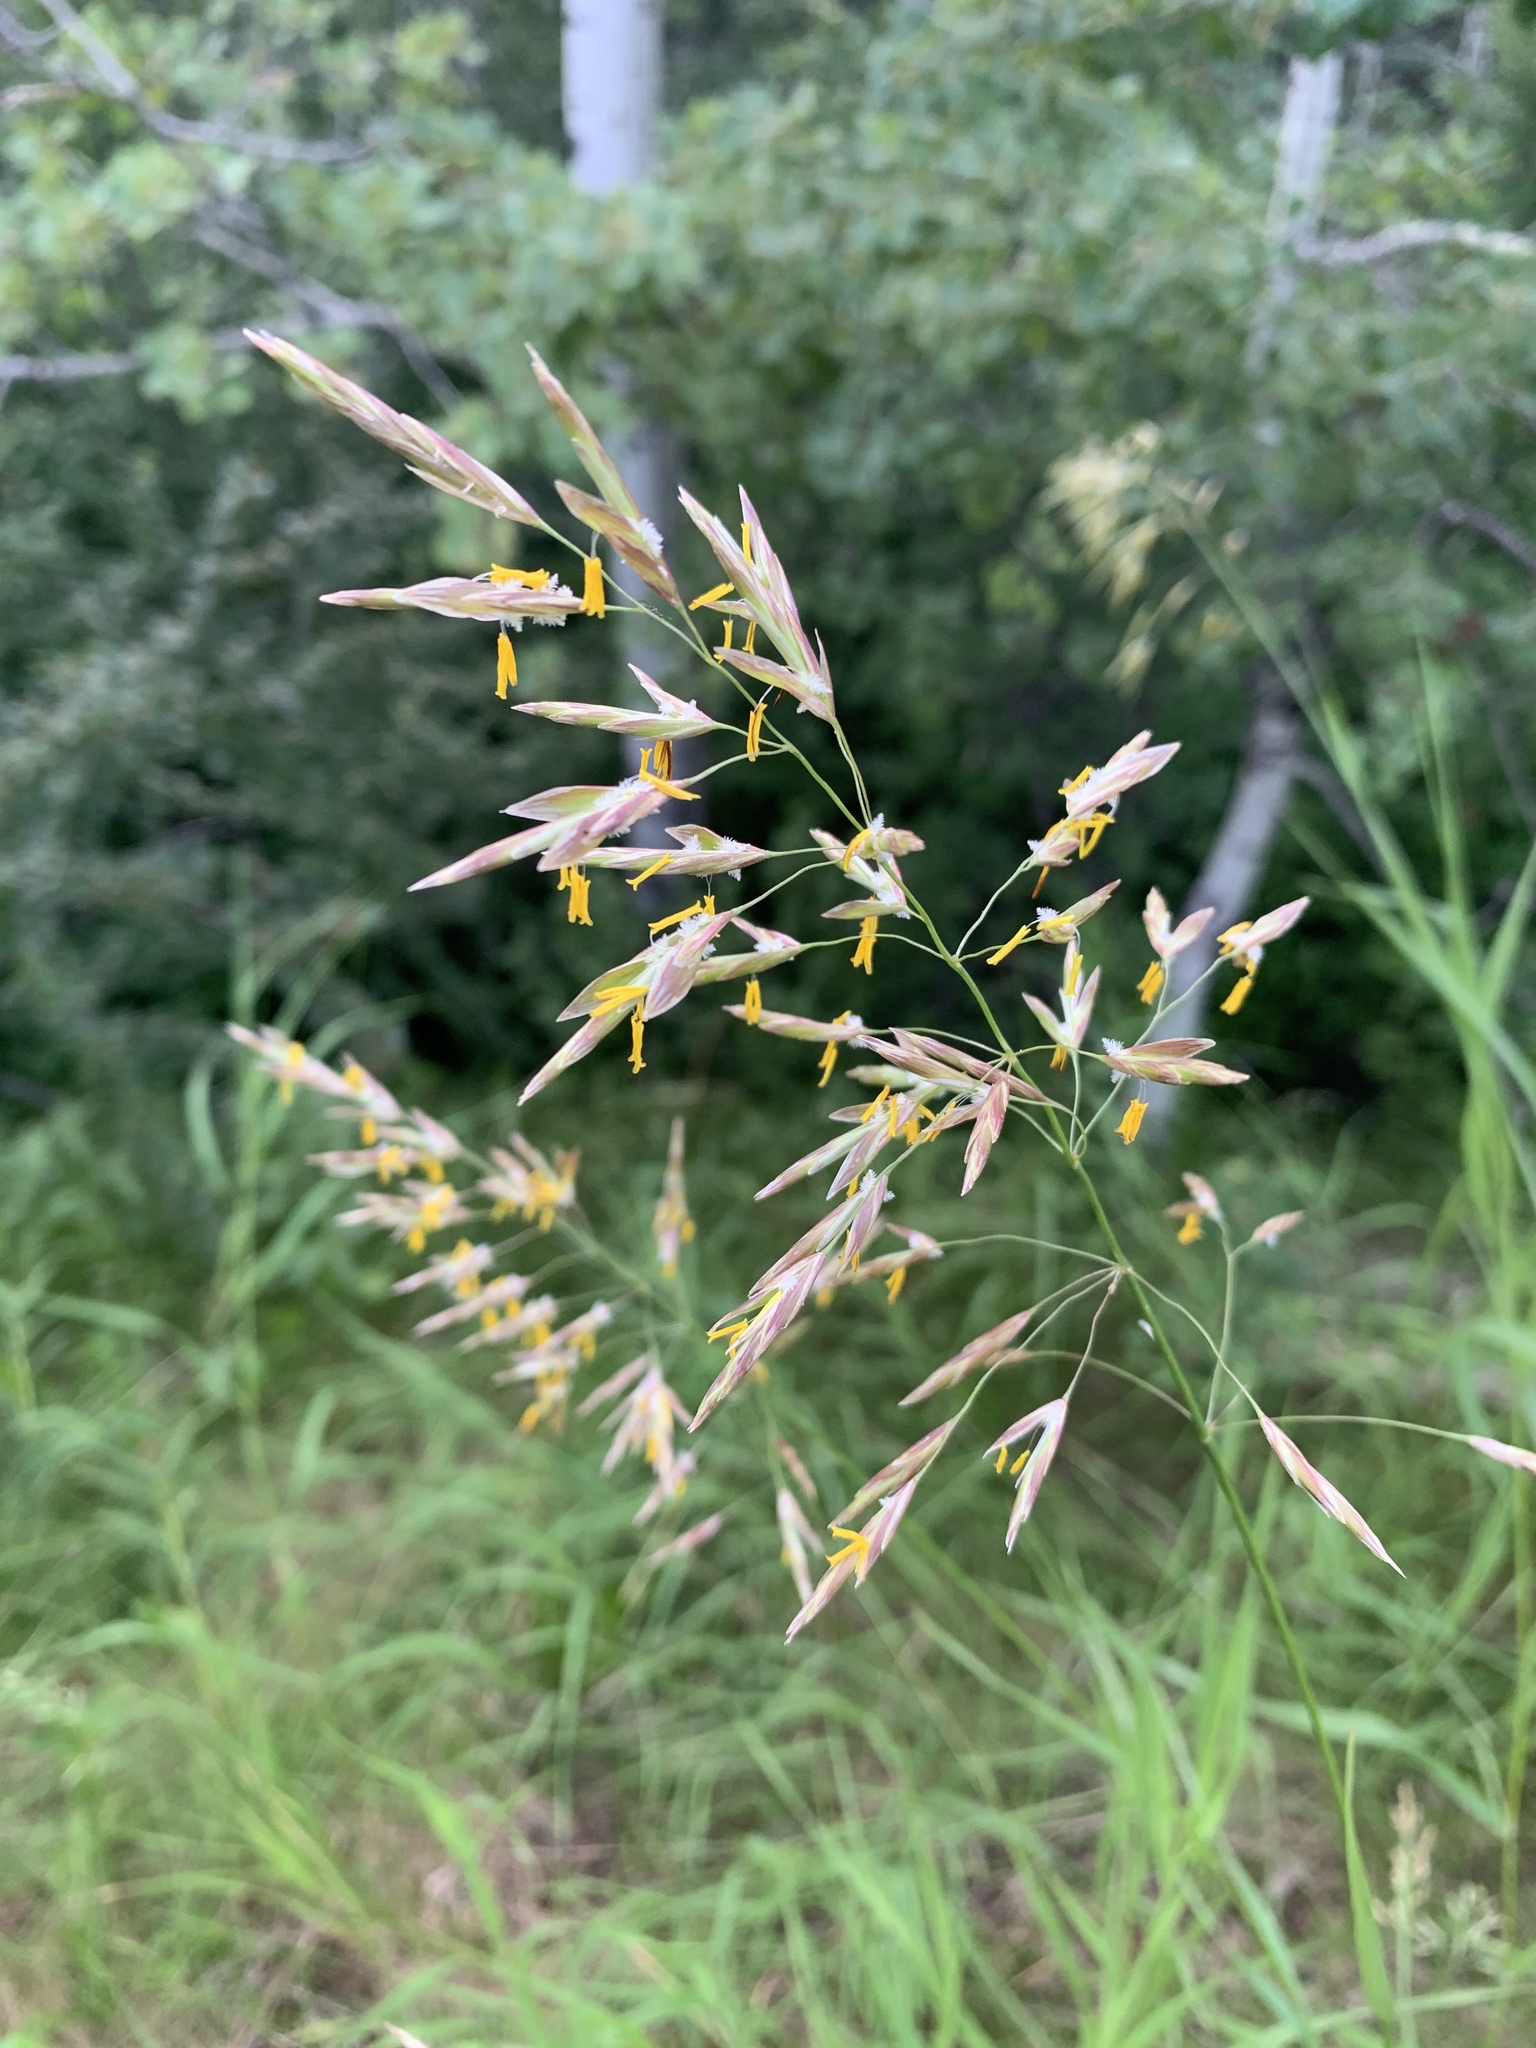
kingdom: Plantae
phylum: Tracheophyta
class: Liliopsida
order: Poales
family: Poaceae
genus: Bromus
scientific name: Bromus inermis
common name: Smooth brome
